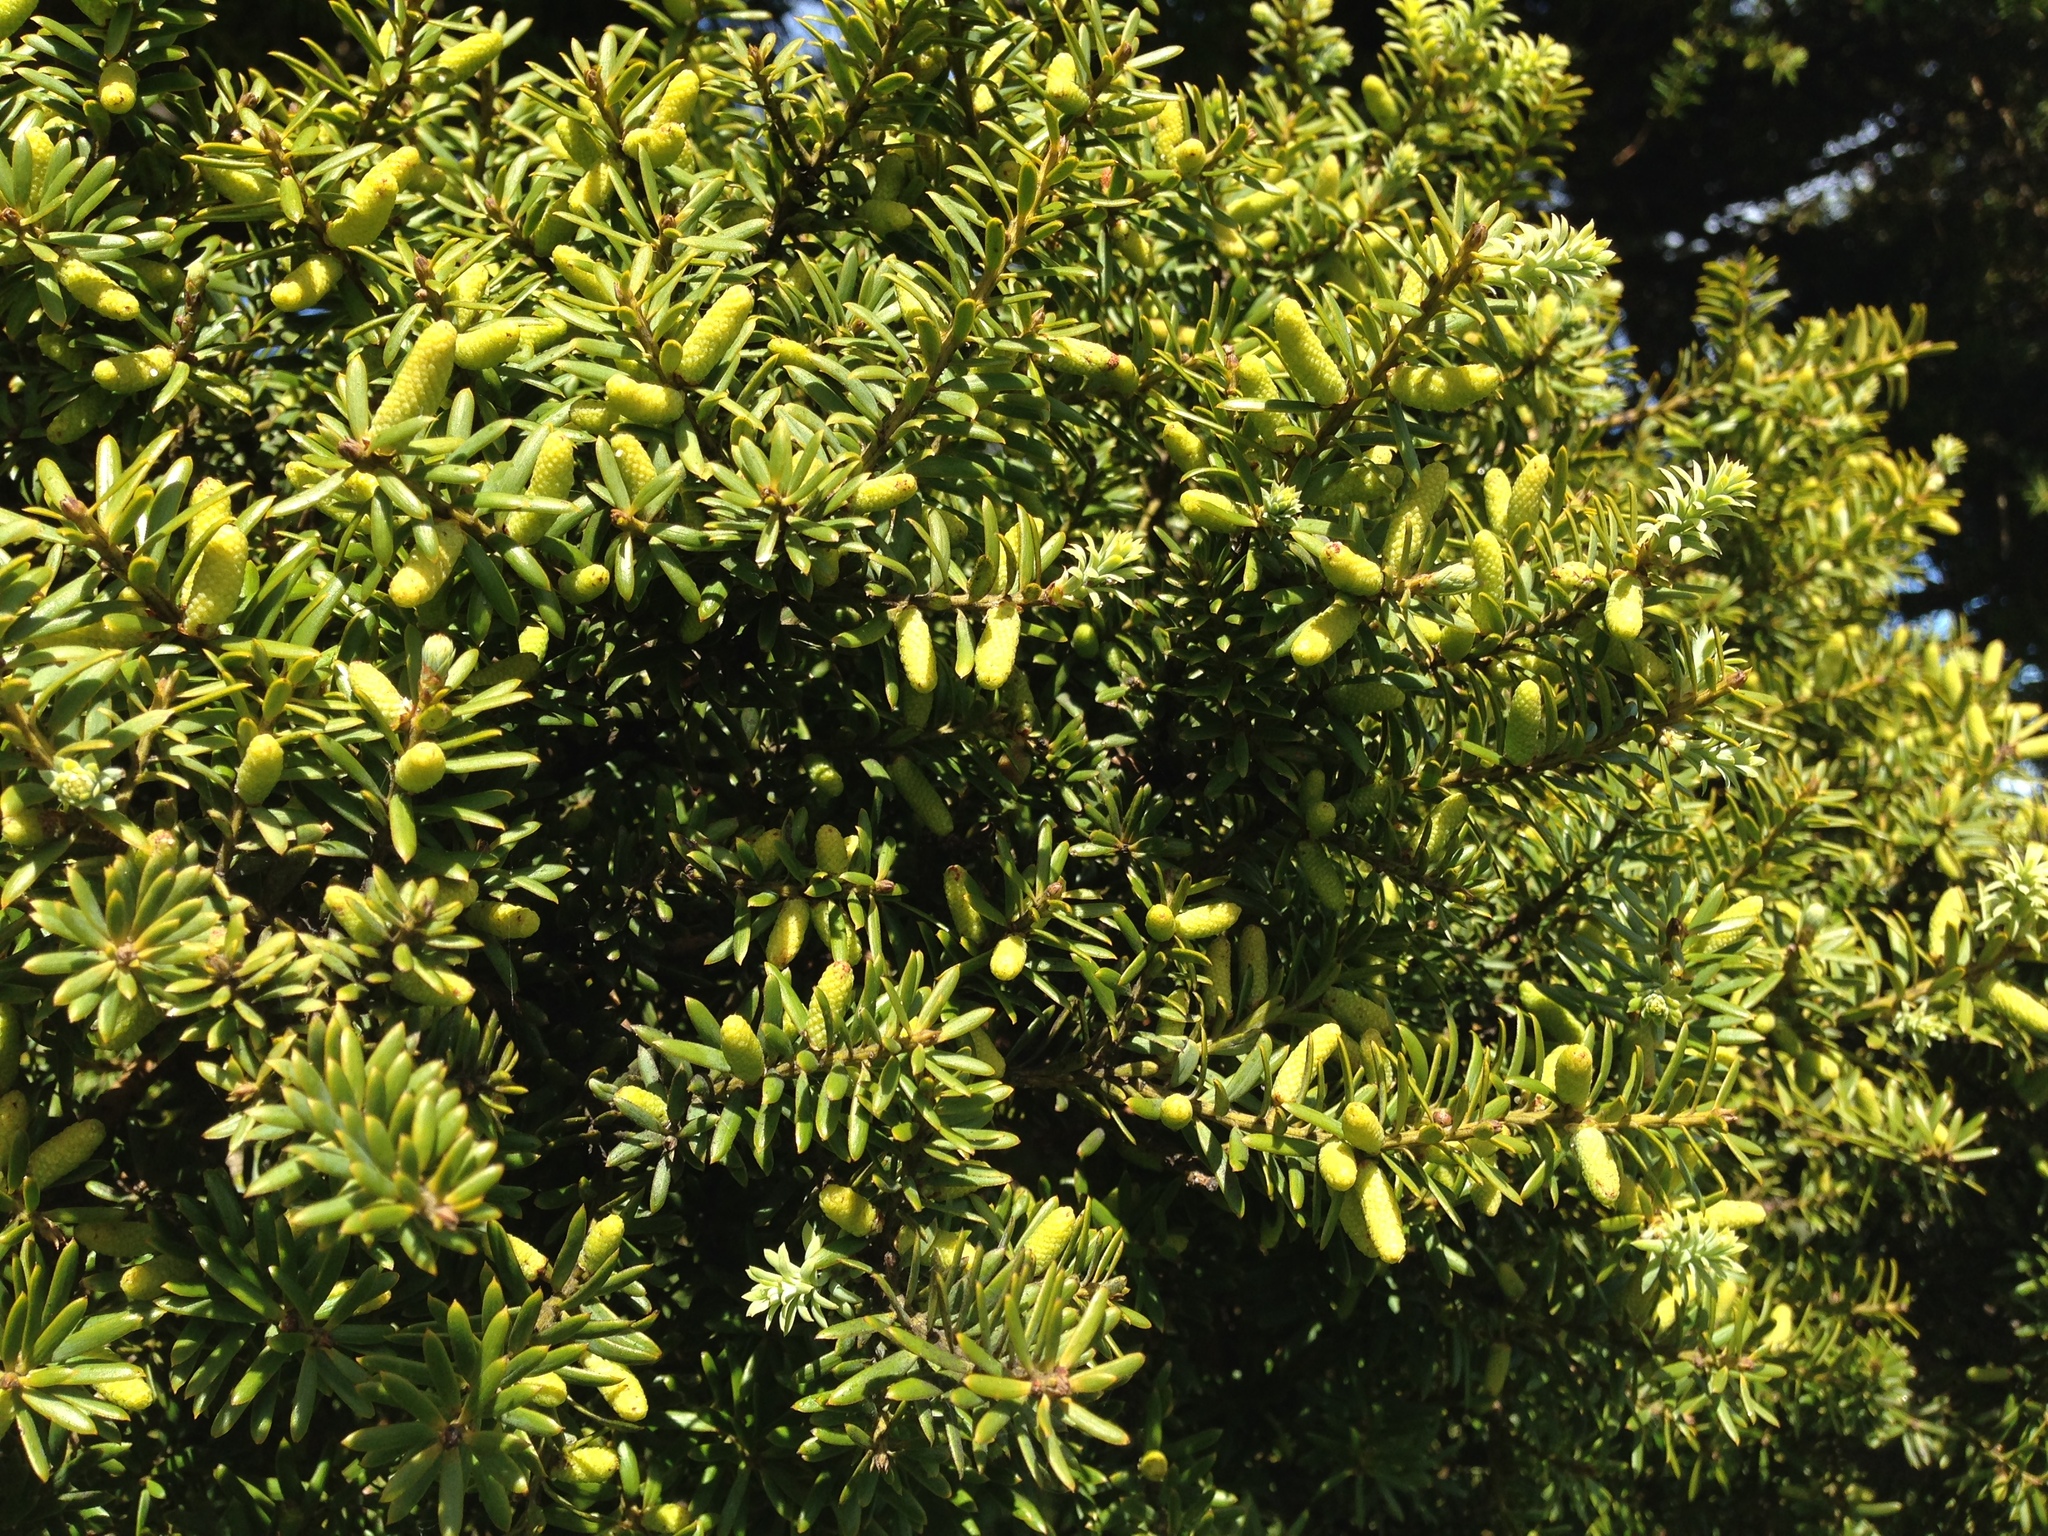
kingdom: Plantae
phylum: Tracheophyta
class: Pinopsida
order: Pinales
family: Podocarpaceae
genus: Podocarpus
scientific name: Podocarpus totara
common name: Totara
